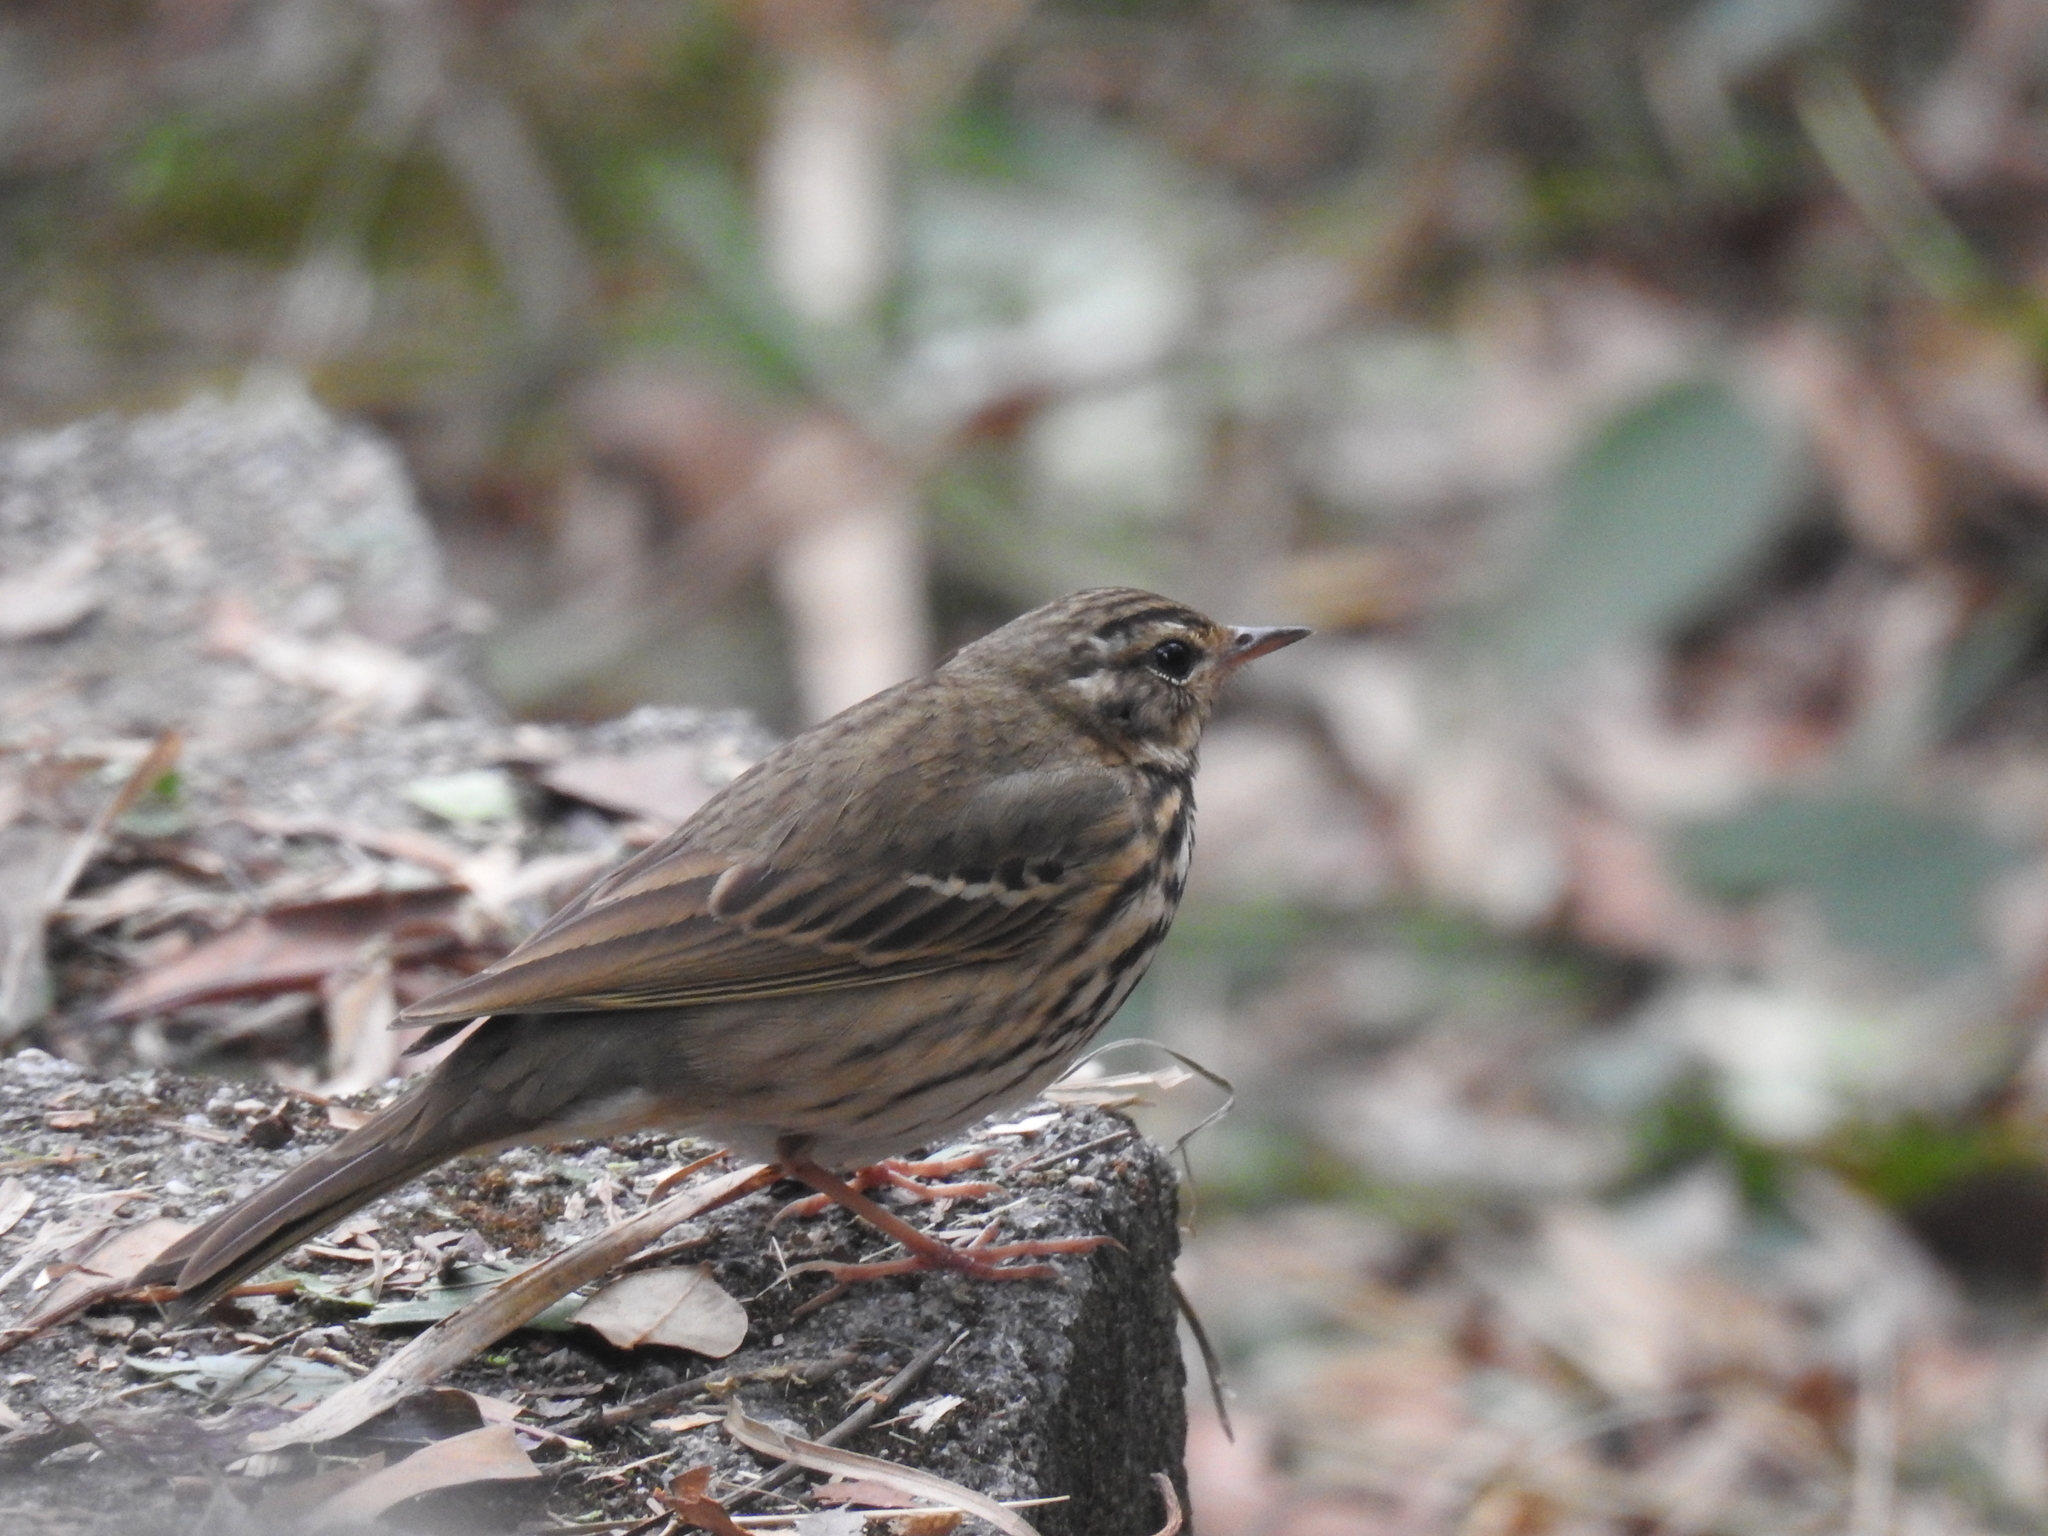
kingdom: Animalia
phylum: Chordata
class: Aves
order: Passeriformes
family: Motacillidae
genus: Anthus
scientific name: Anthus hodgsoni
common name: Olive-backed pipit
